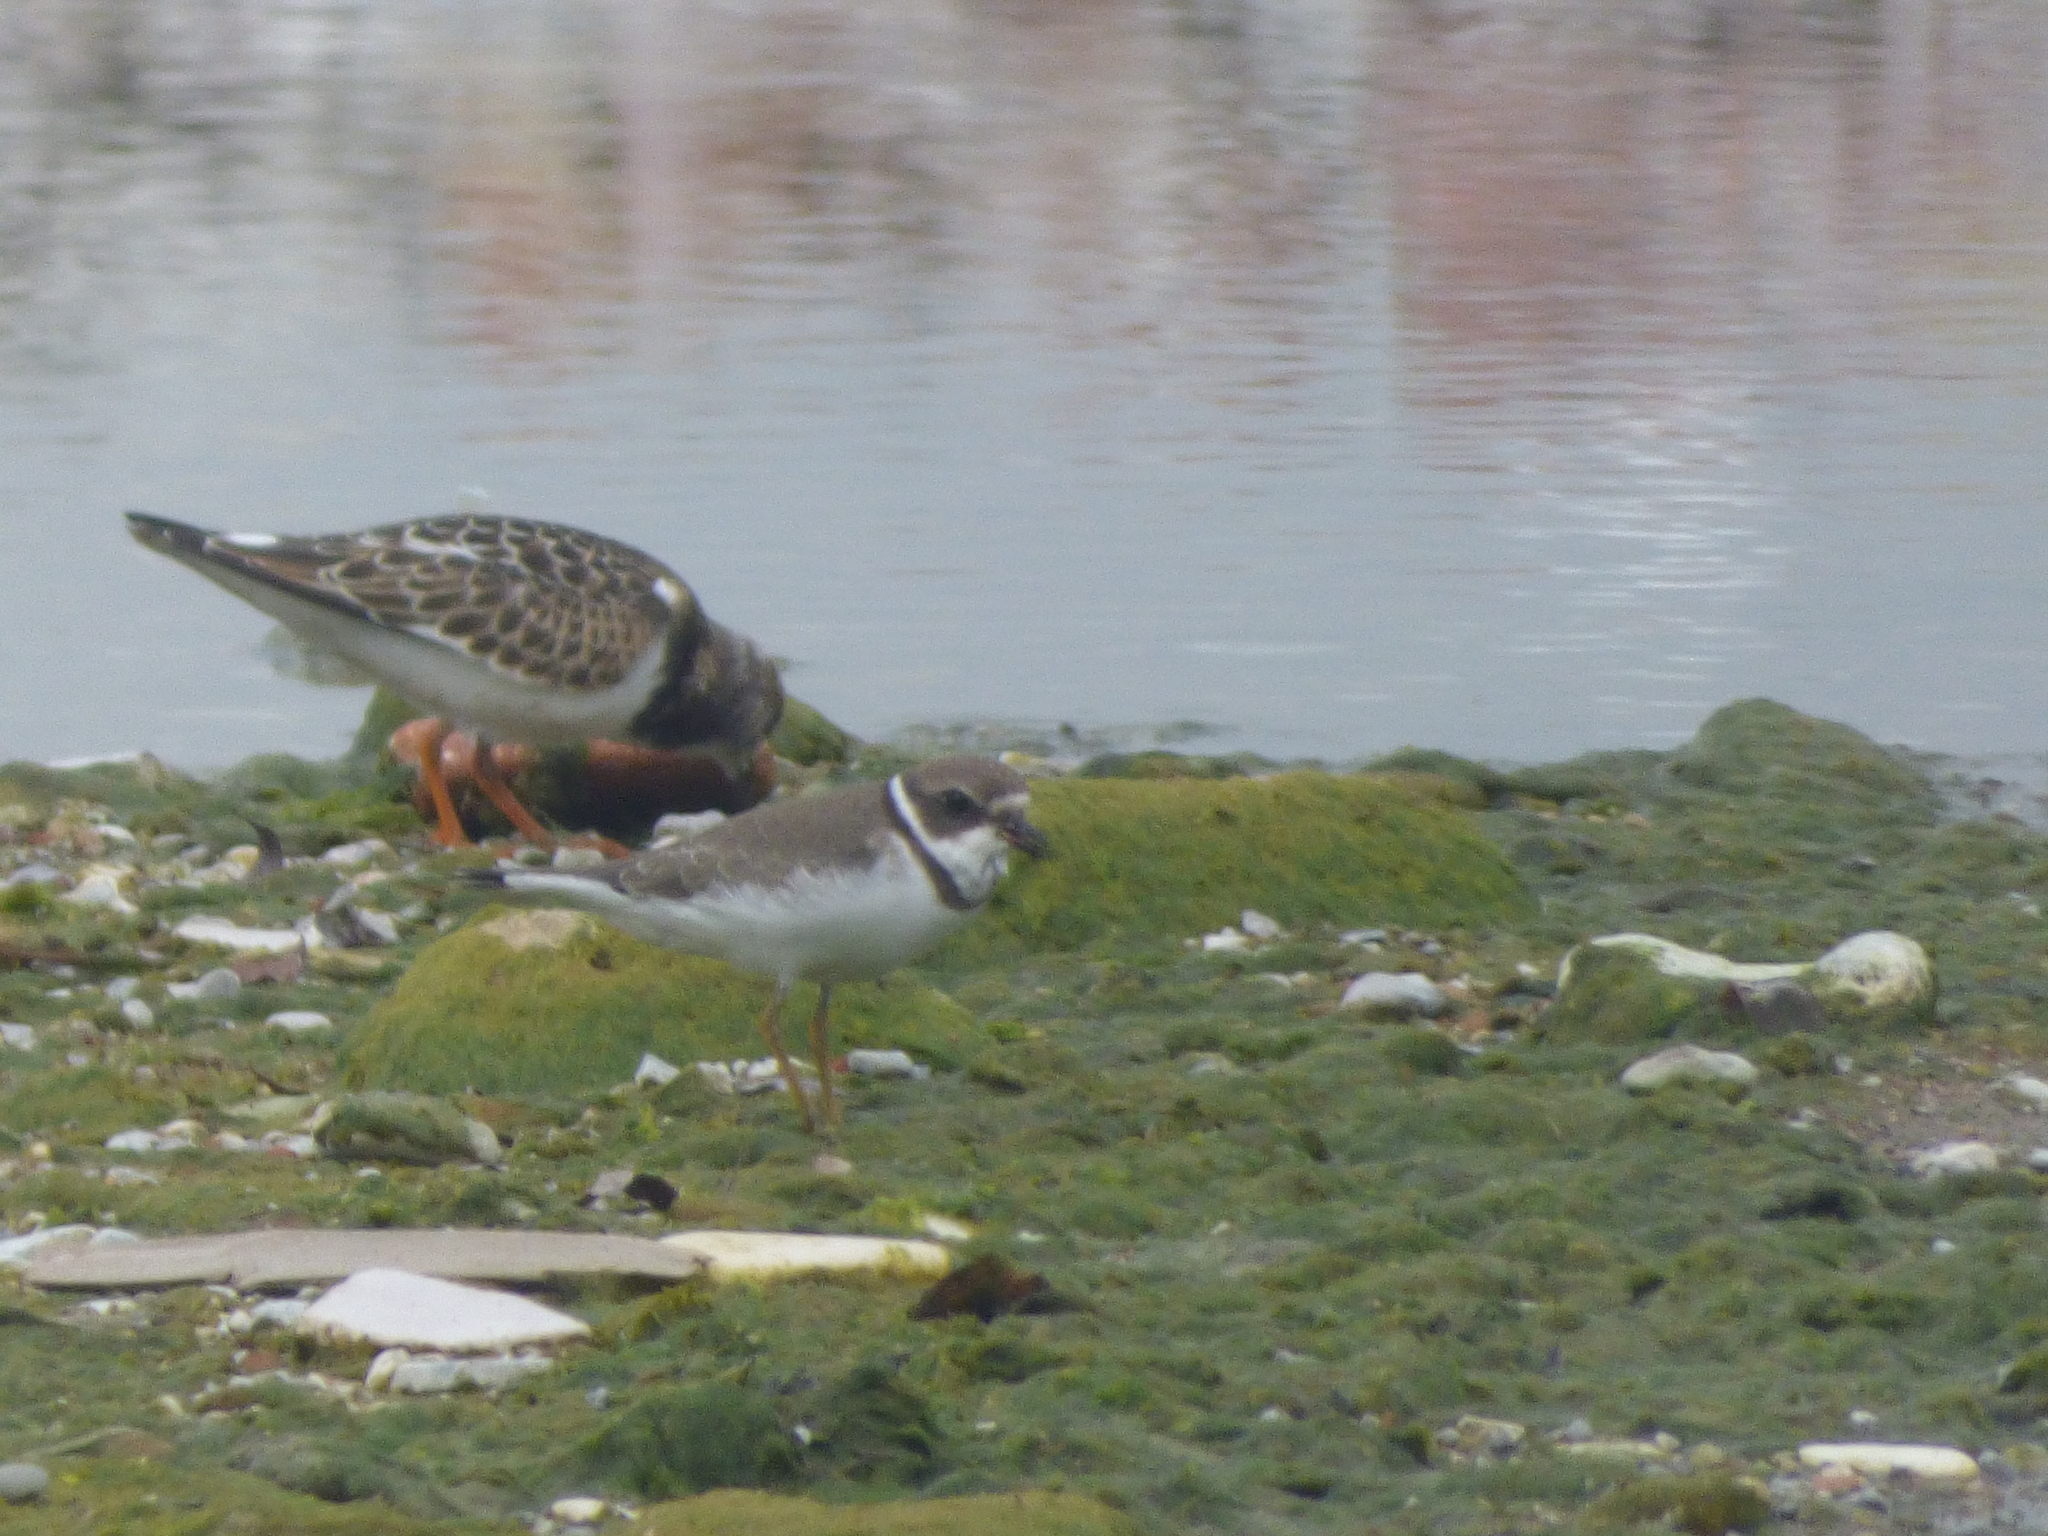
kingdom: Animalia
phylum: Chordata
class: Aves
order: Charadriiformes
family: Scolopacidae
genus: Arenaria
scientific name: Arenaria interpres
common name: Ruddy turnstone
